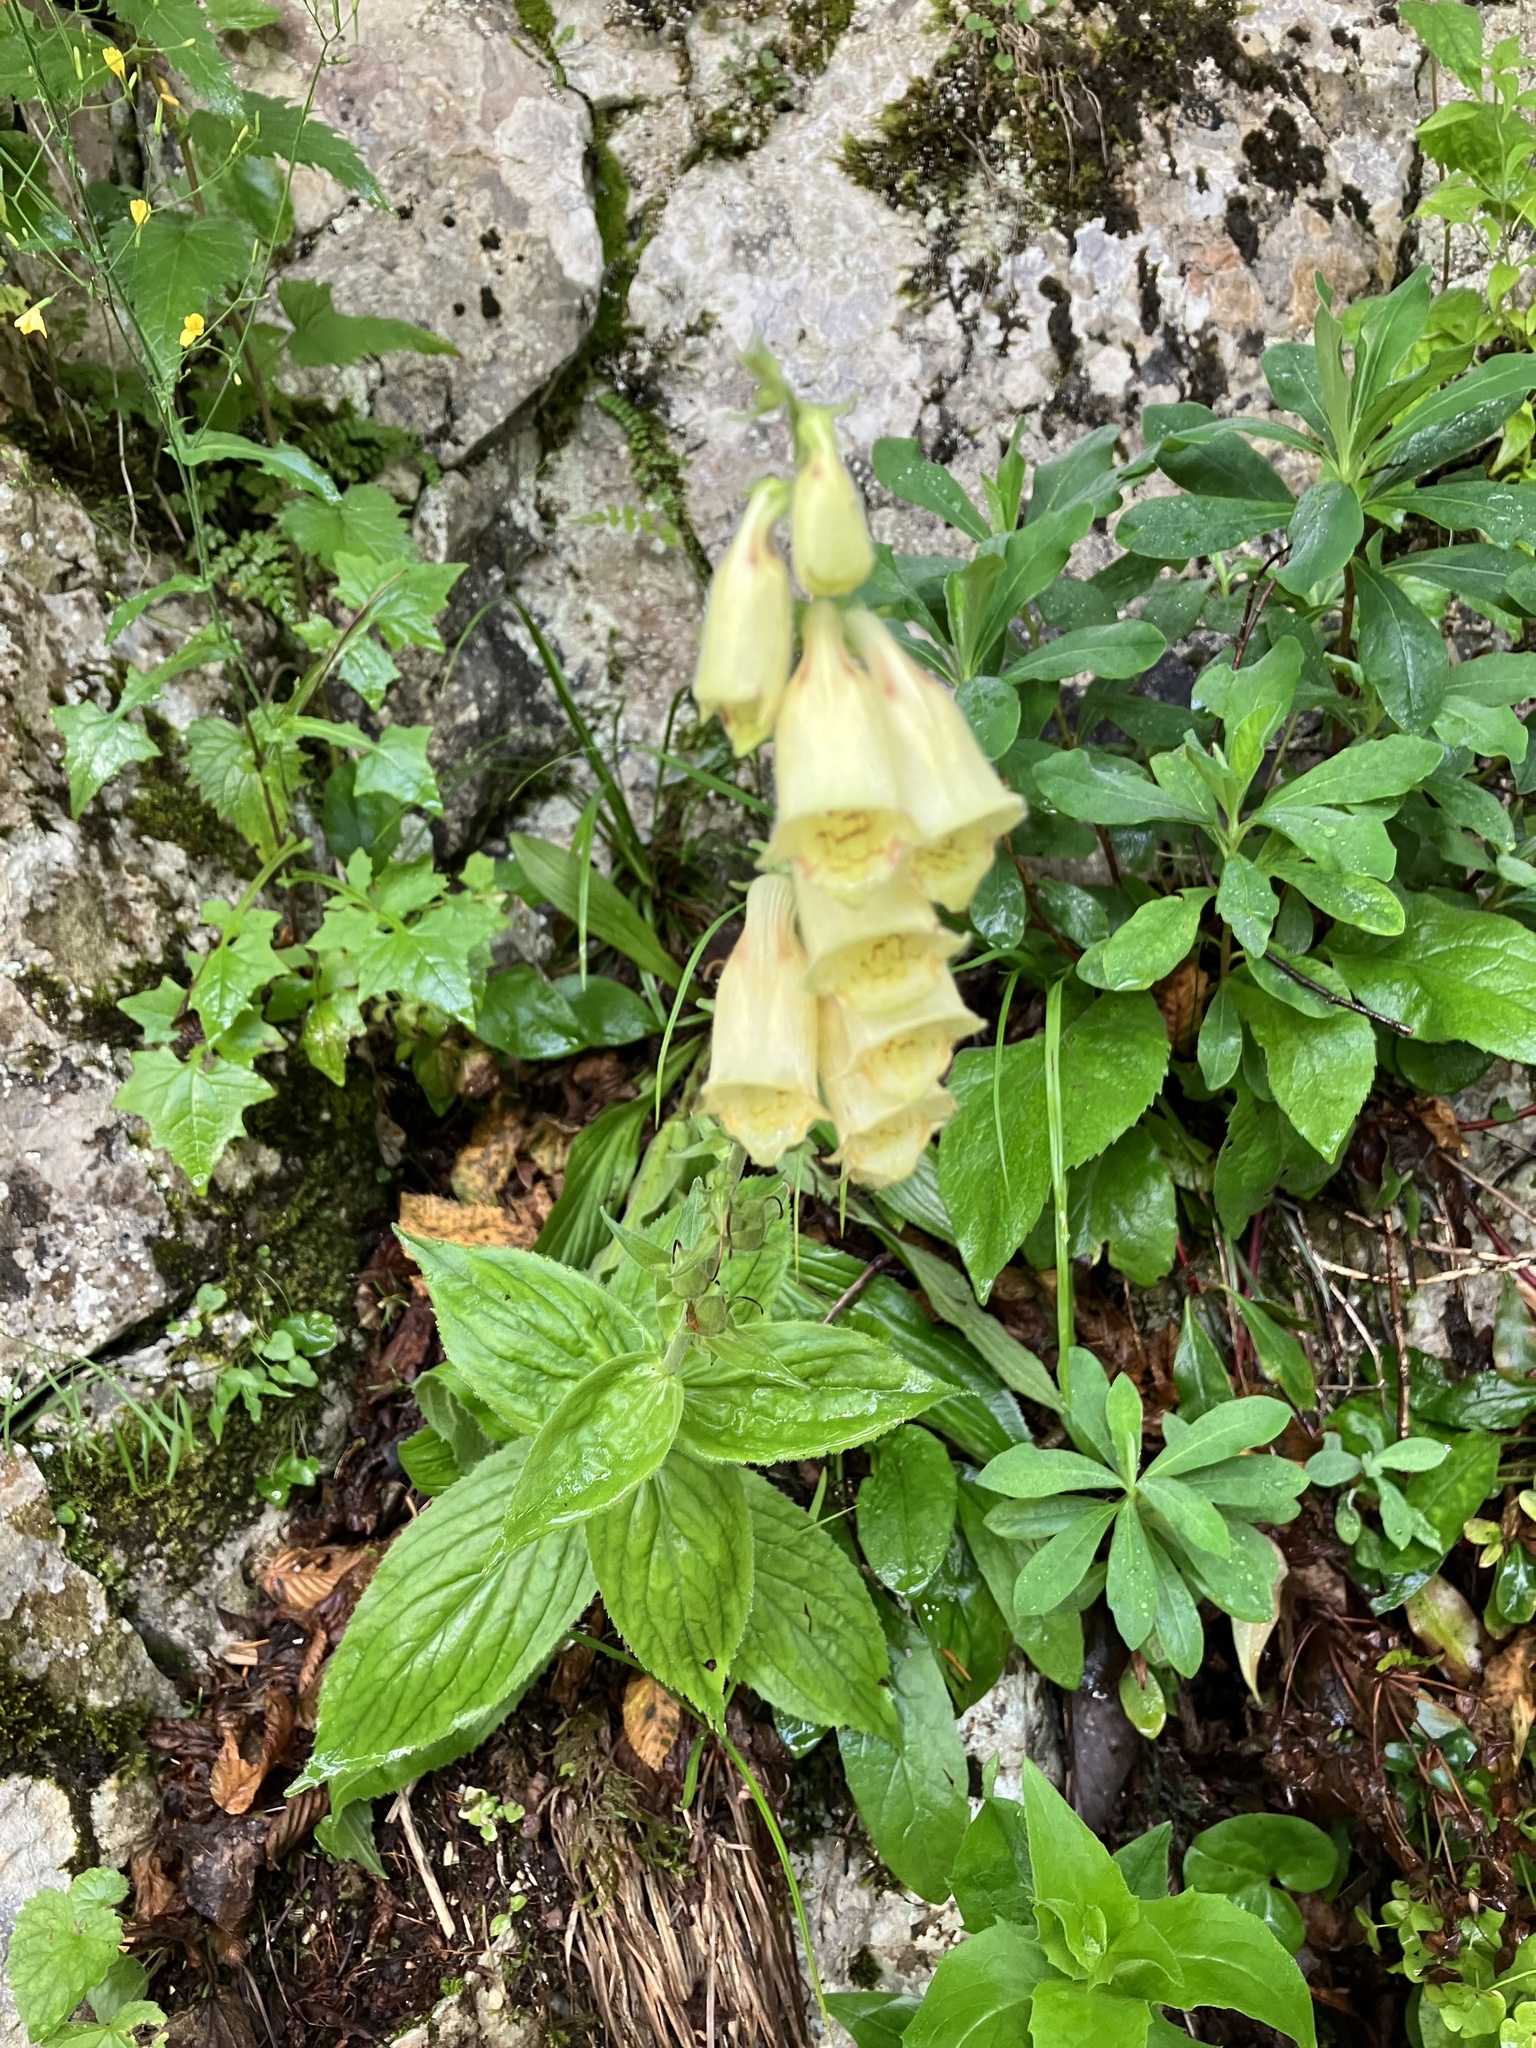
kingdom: Plantae
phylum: Tracheophyta
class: Magnoliopsida
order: Lamiales
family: Plantaginaceae
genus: Digitalis
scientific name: Digitalis grandiflora
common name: Yellow foxglove
